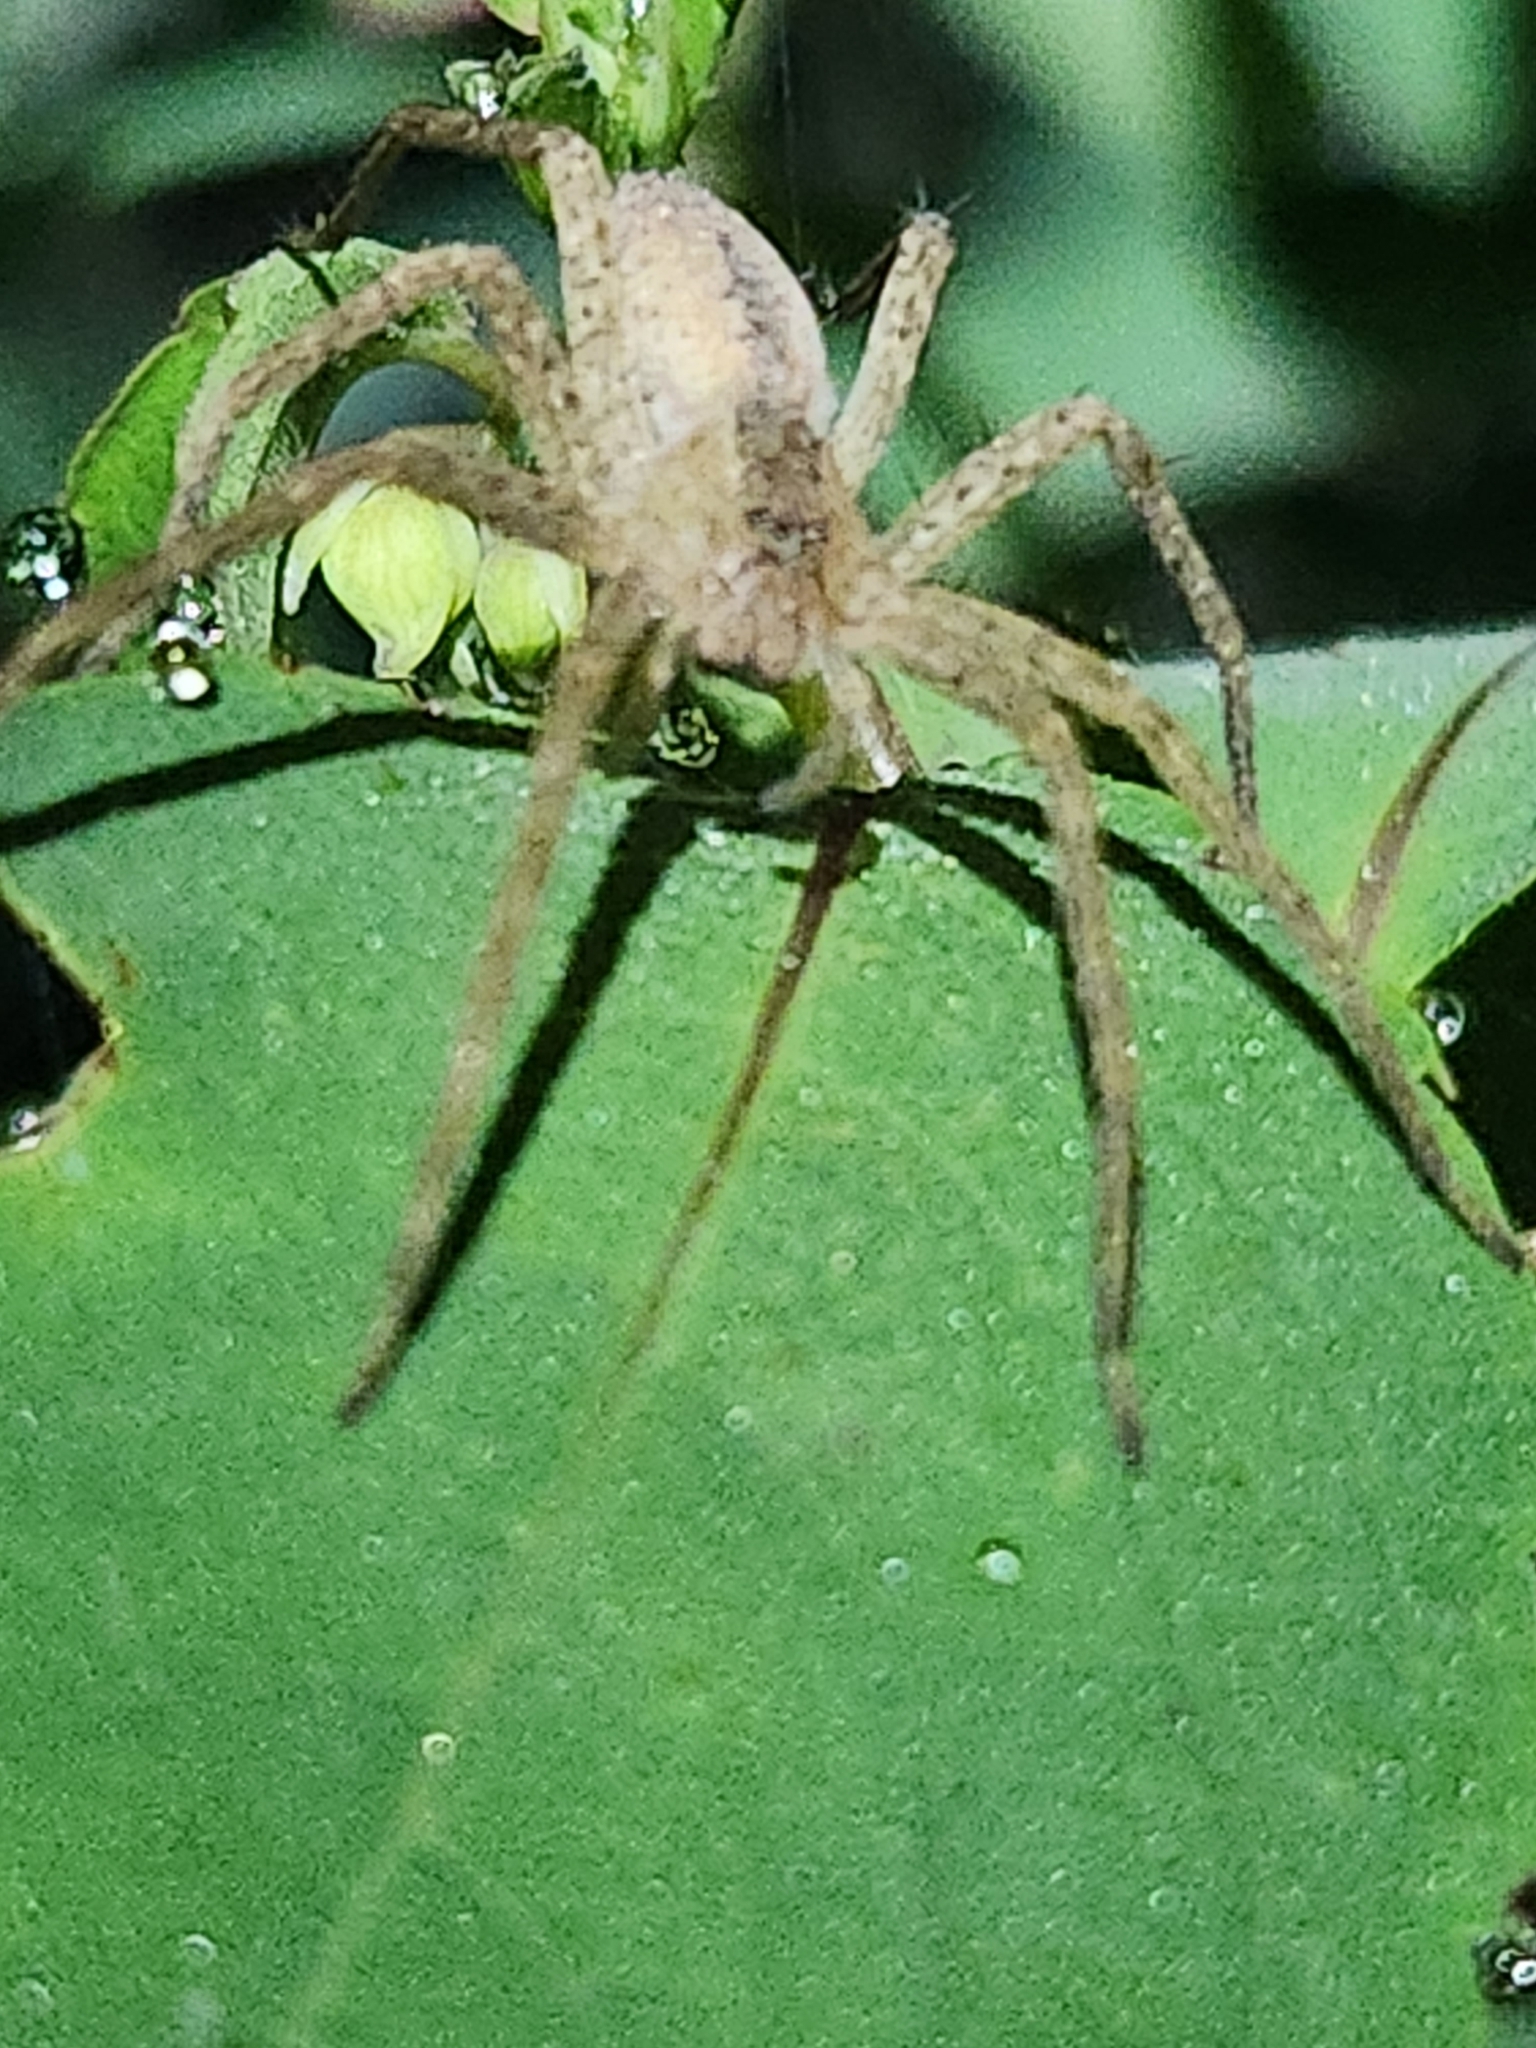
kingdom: Animalia
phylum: Arthropoda
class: Arachnida
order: Araneae
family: Pisauridae
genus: Pisaurina
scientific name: Pisaurina mira
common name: American nursery web spider
